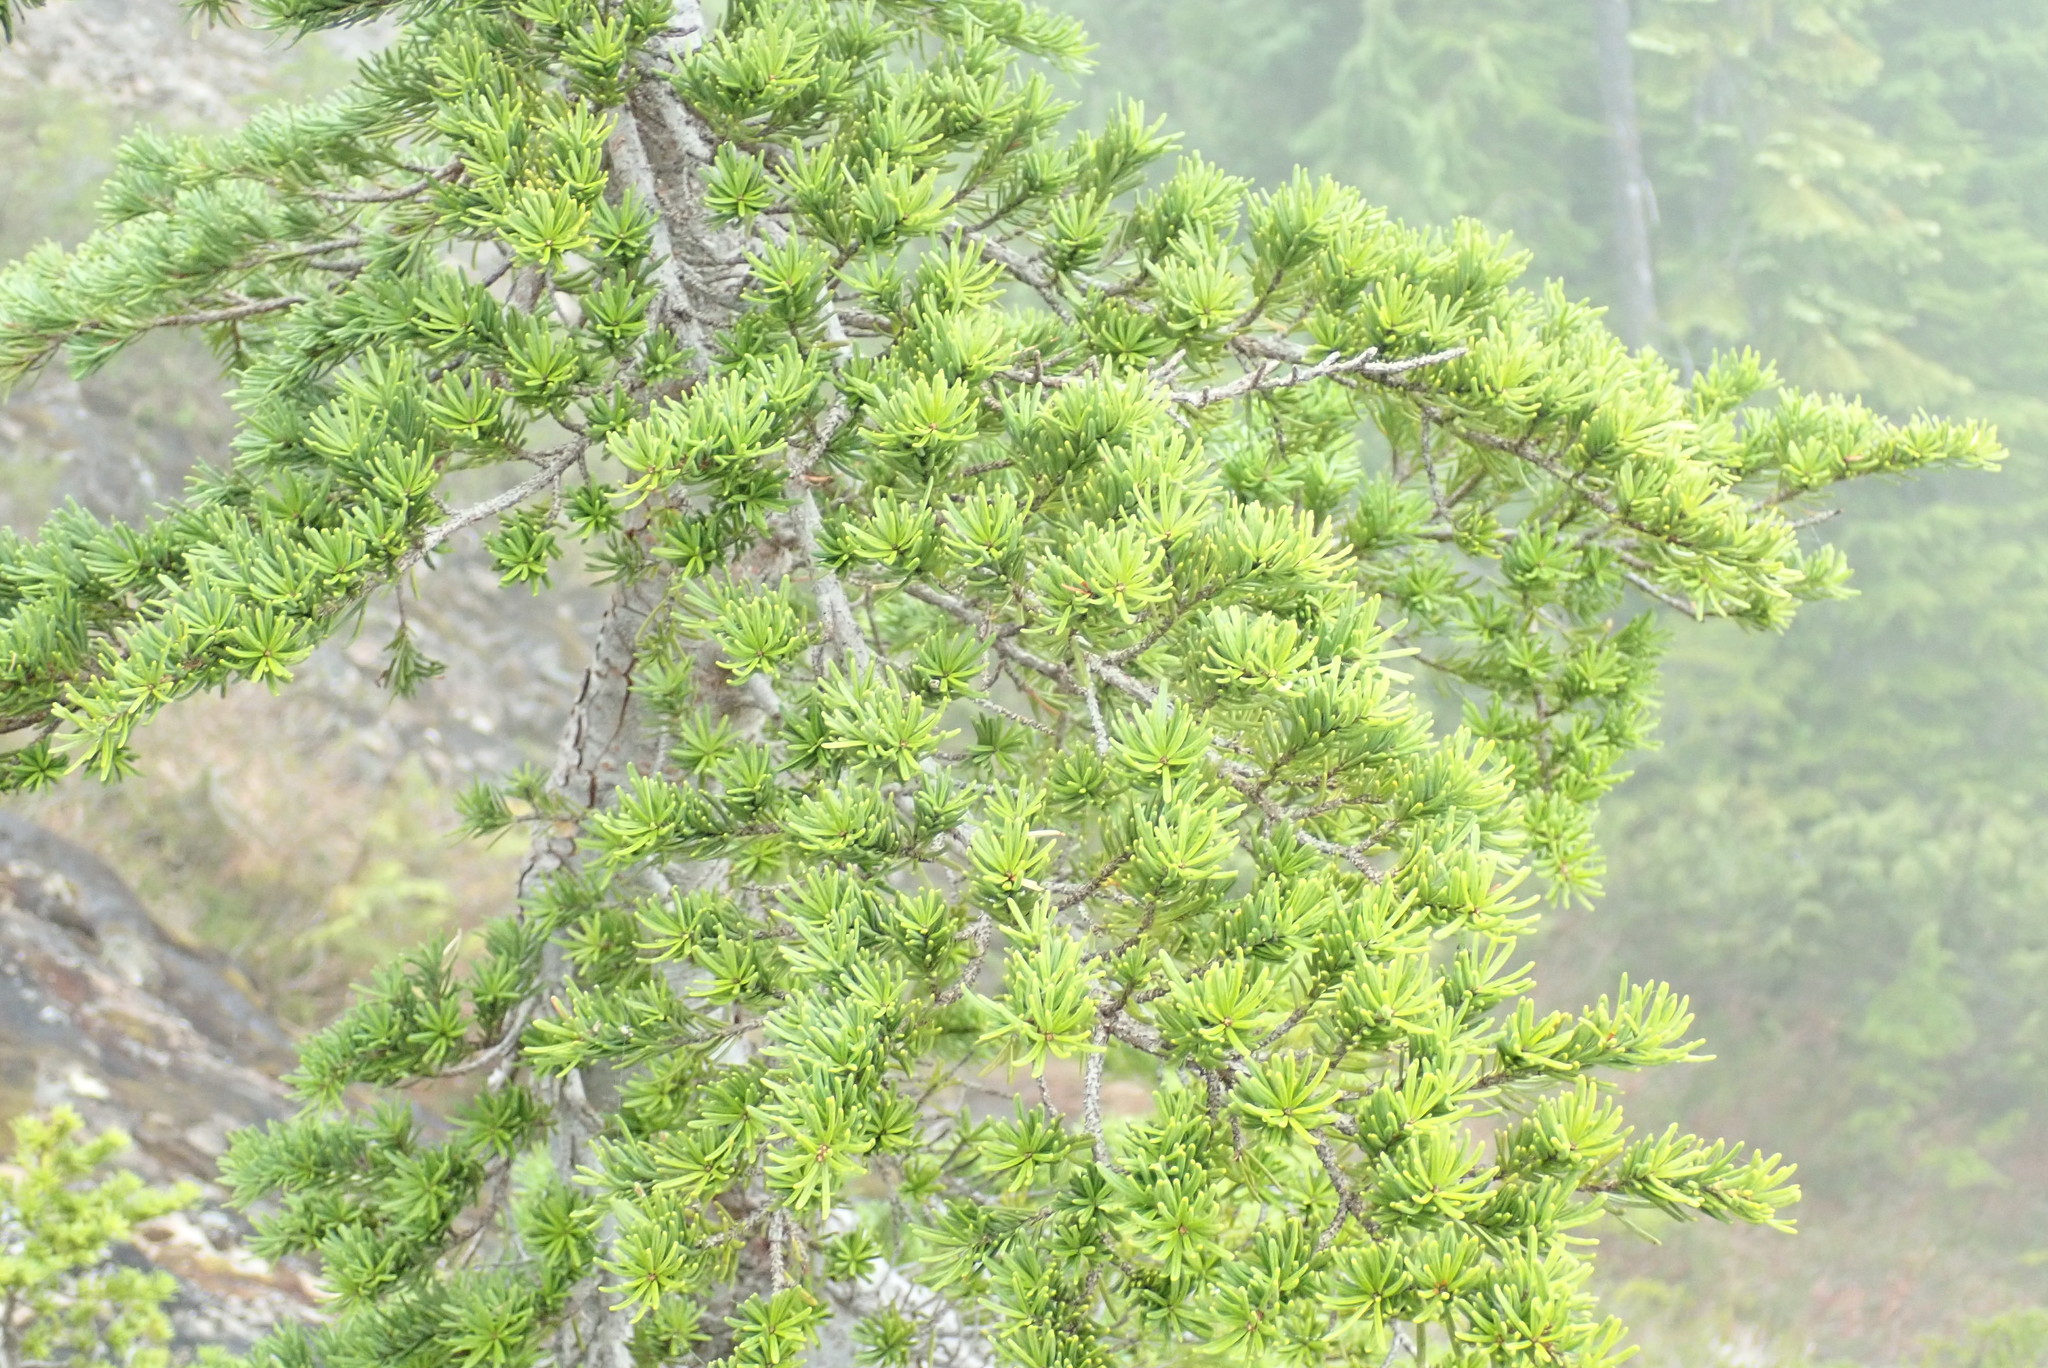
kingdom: Plantae
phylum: Tracheophyta
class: Pinopsida
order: Pinales
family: Pinaceae
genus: Tsuga
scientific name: Tsuga mertensiana
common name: Mountain hemlock
